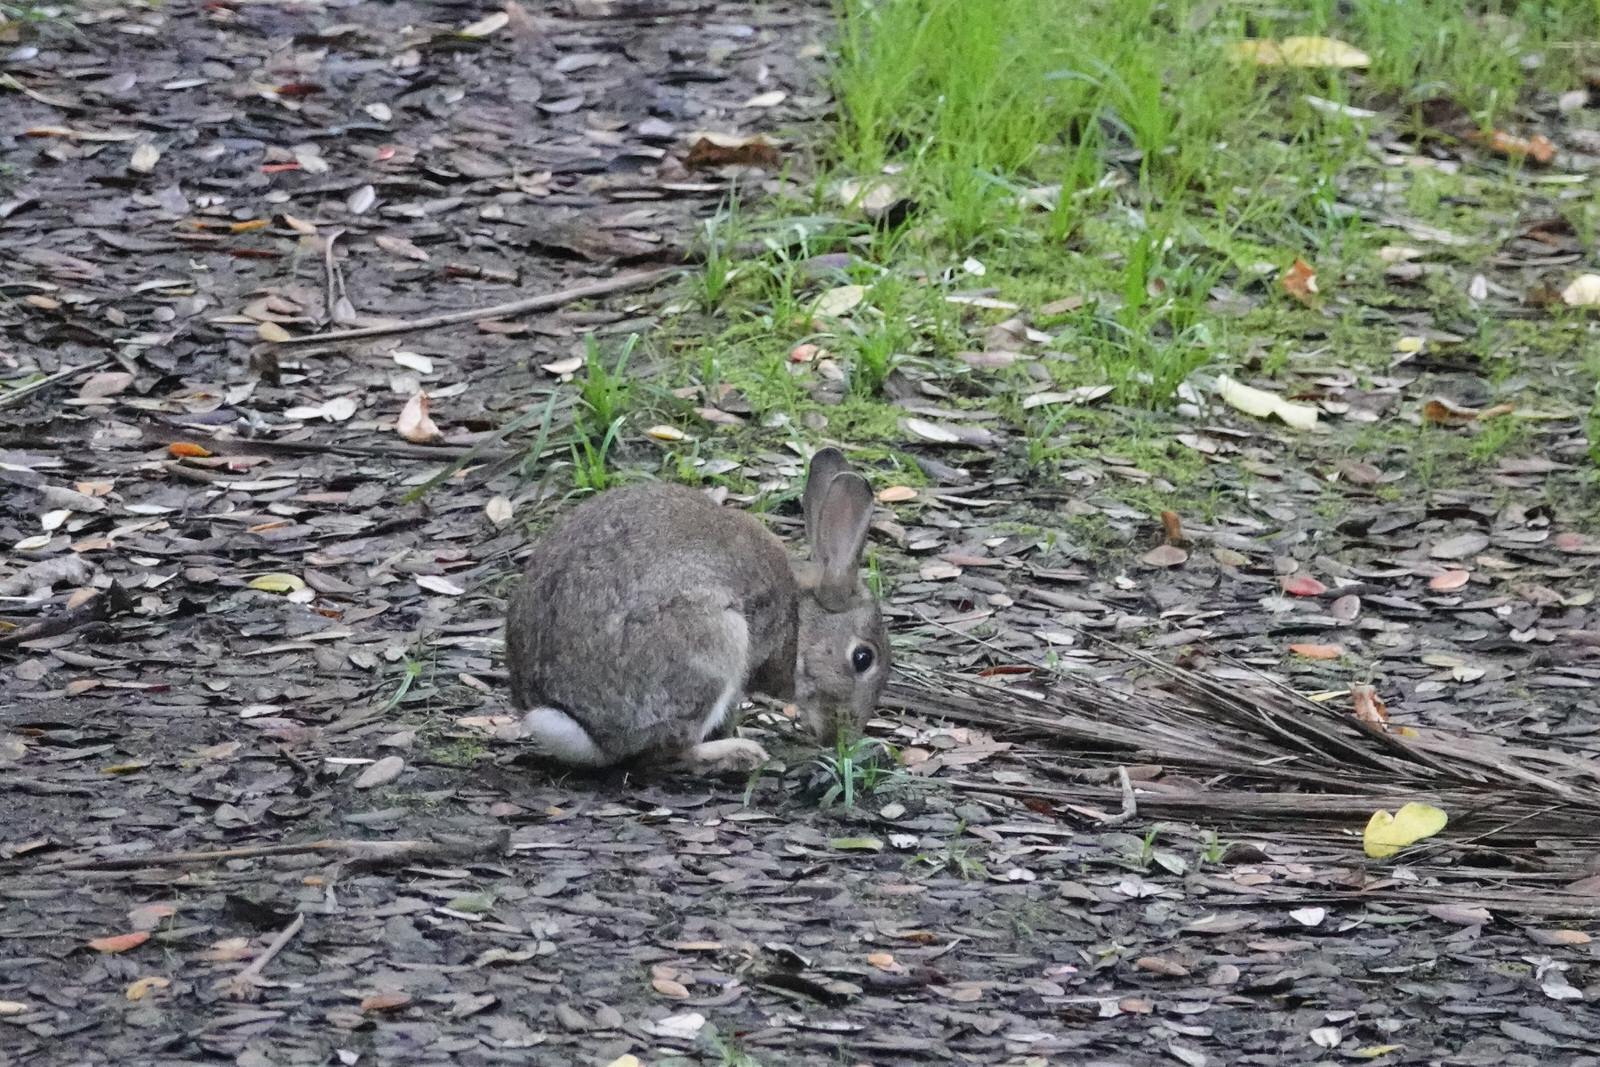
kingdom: Animalia
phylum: Chordata
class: Mammalia
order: Lagomorpha
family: Leporidae
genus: Oryctolagus
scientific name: Oryctolagus cuniculus
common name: European rabbit
